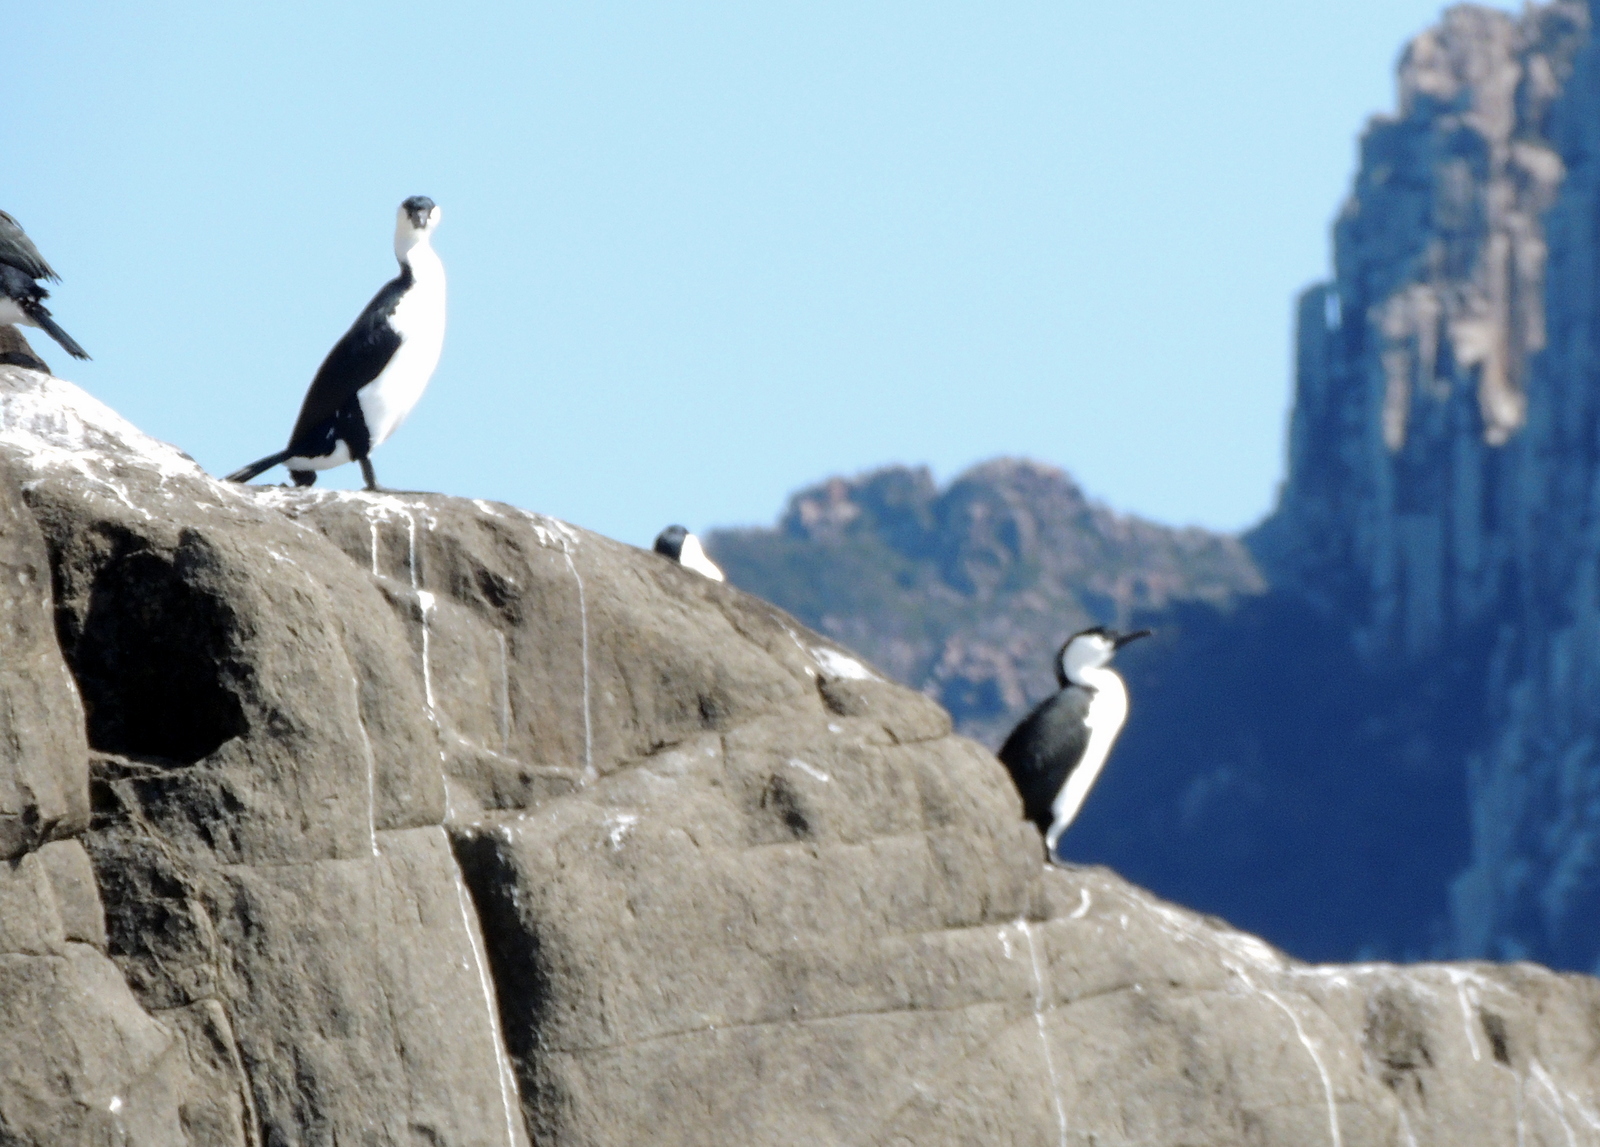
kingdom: Animalia
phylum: Chordata
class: Aves
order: Suliformes
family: Phalacrocoracidae
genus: Phalacrocorax
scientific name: Phalacrocorax fuscescens
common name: Black-faced cormorant
